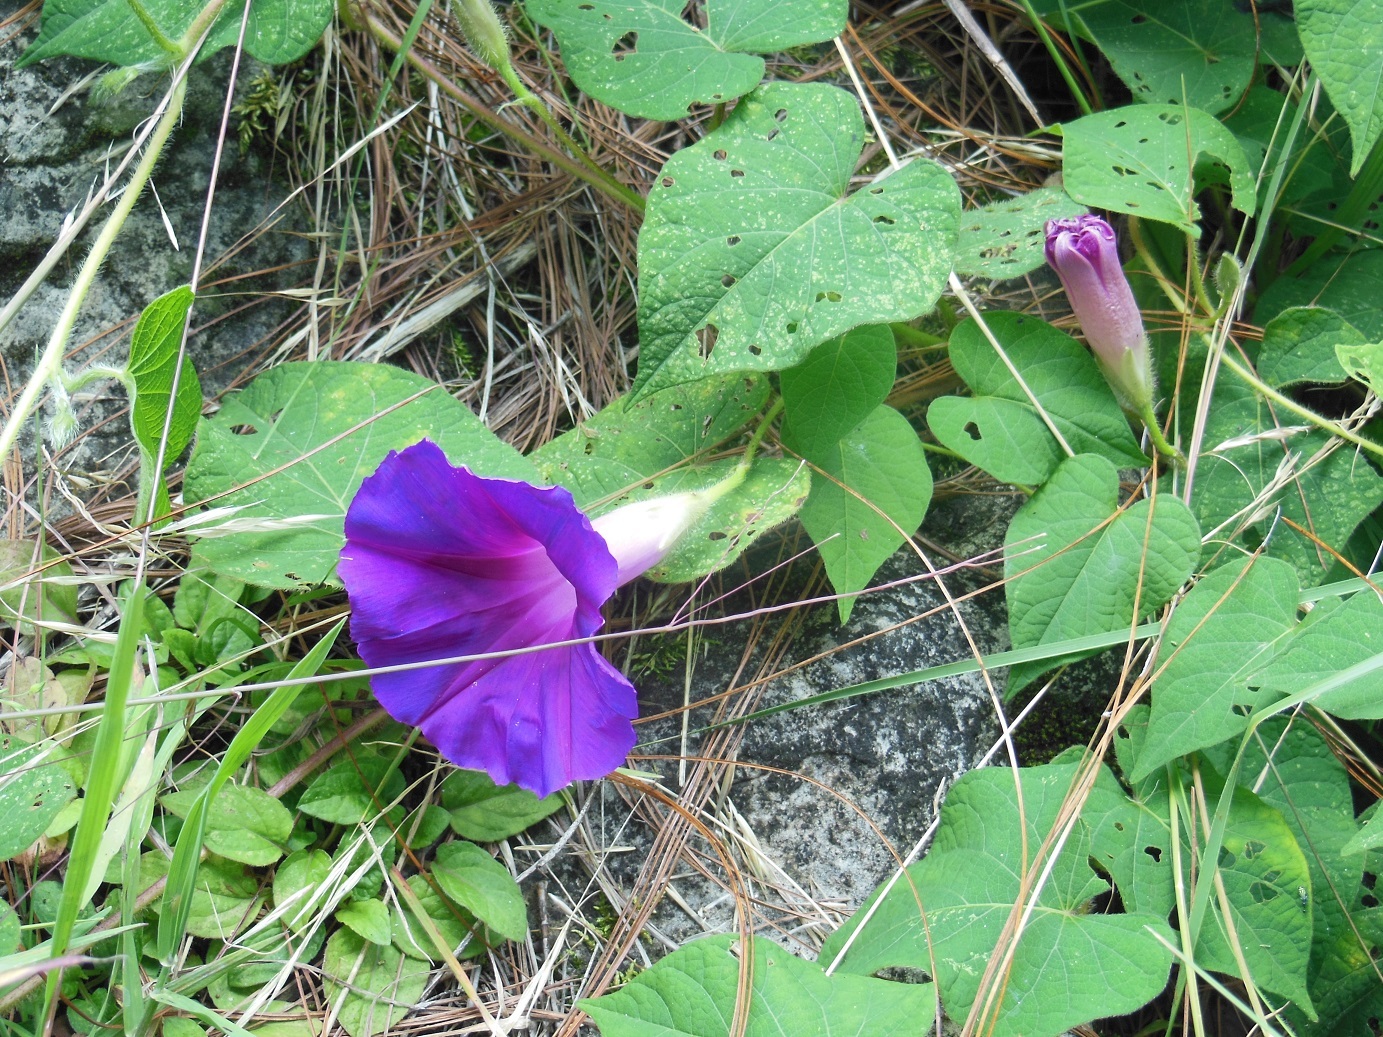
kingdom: Plantae
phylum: Tracheophyta
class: Magnoliopsida
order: Solanales
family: Convolvulaceae
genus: Ipomoea
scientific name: Ipomoea orizabensis
